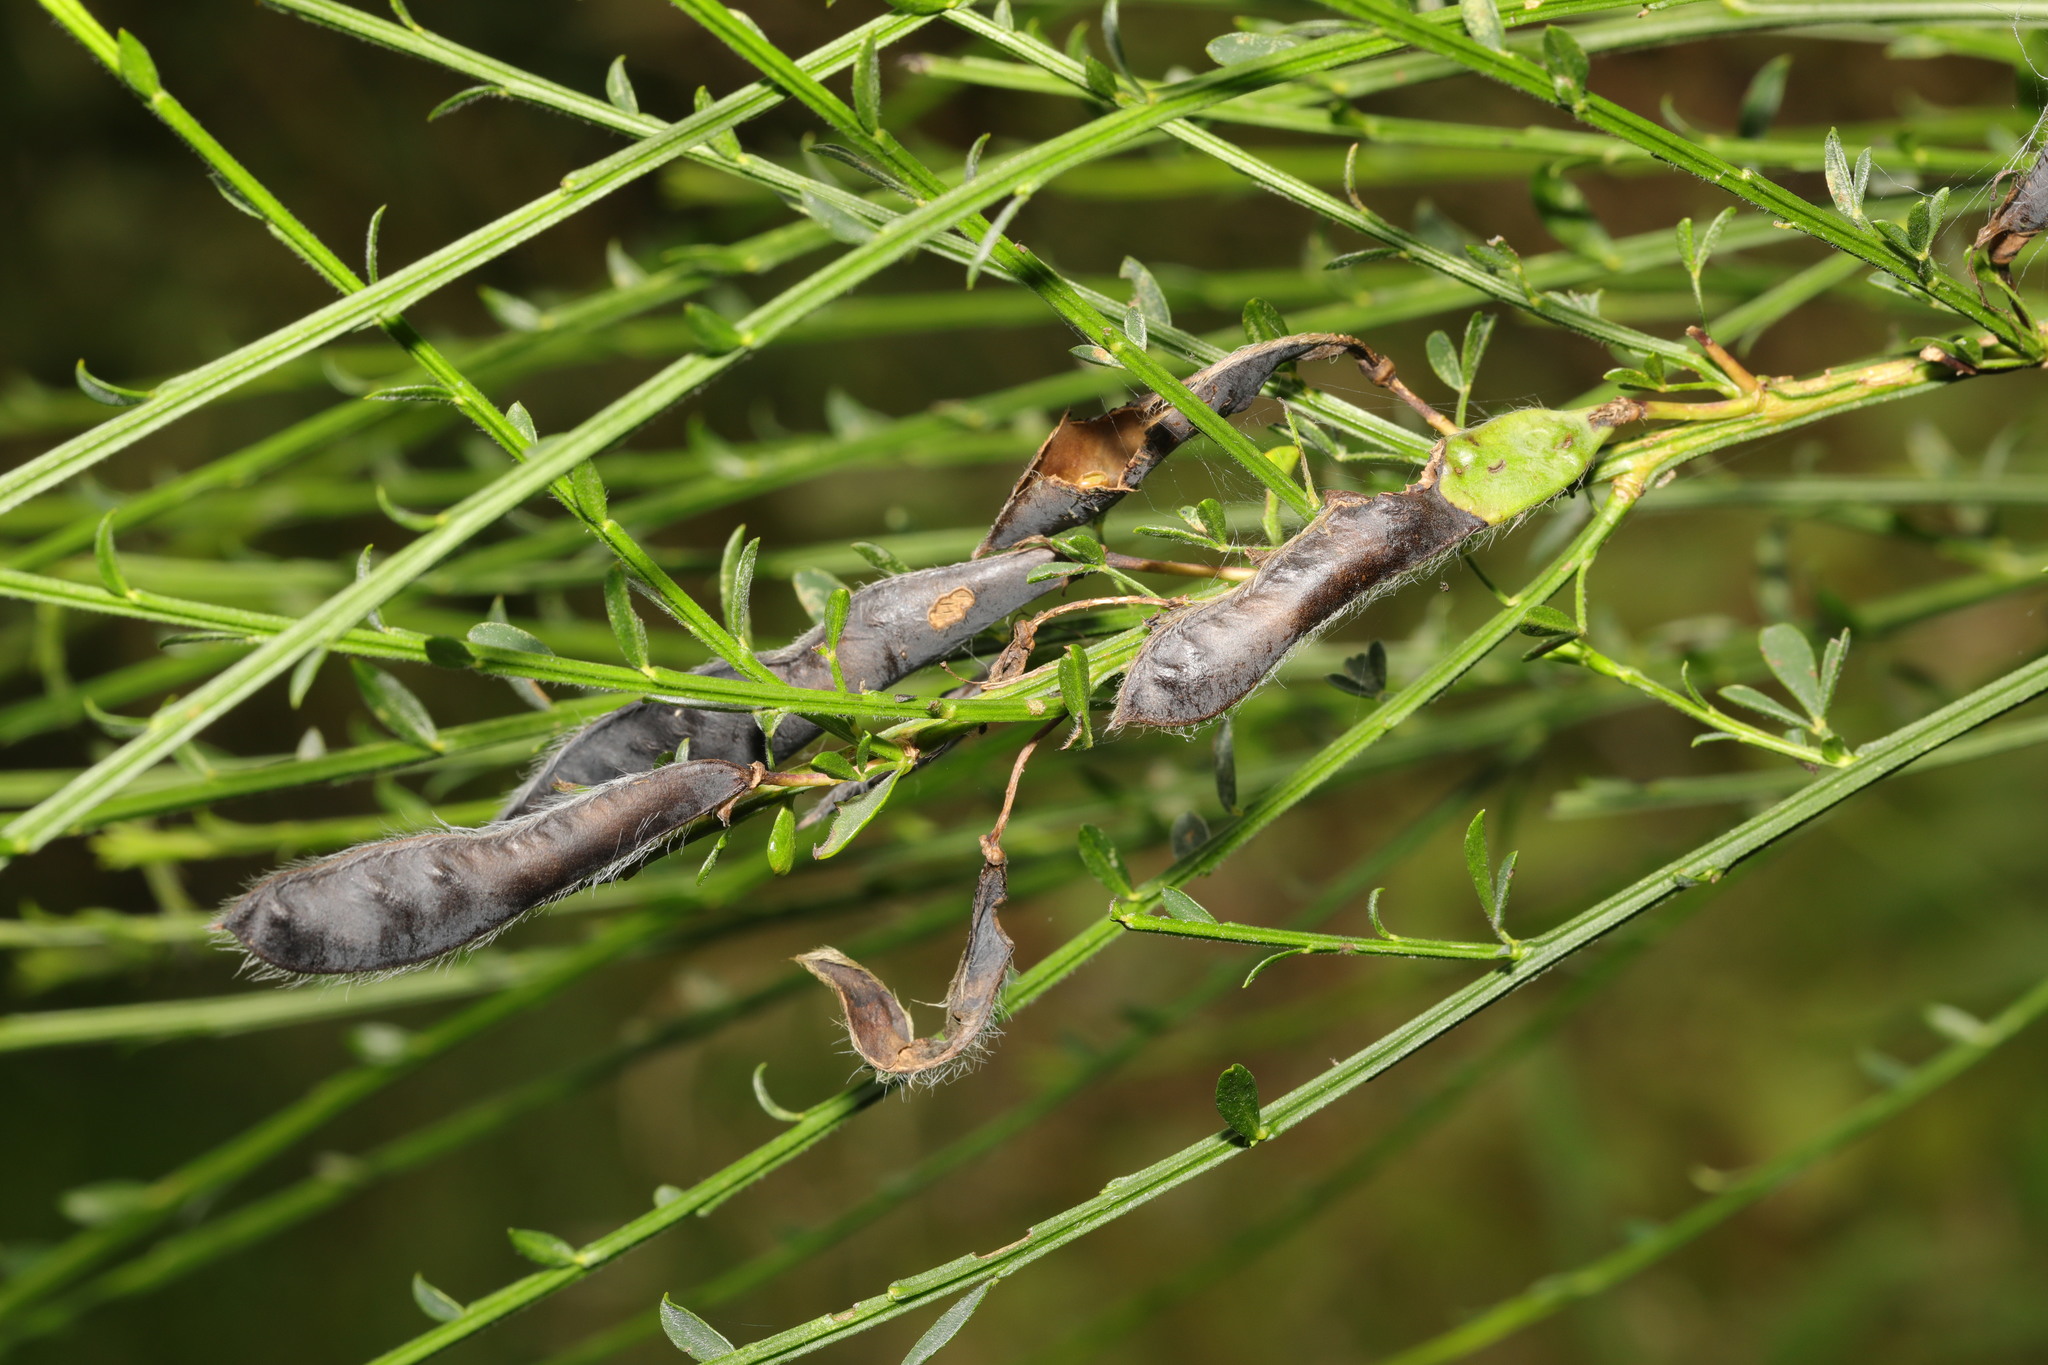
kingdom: Plantae
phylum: Tracheophyta
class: Magnoliopsida
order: Fabales
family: Fabaceae
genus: Cytisus
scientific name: Cytisus scoparius
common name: Scotch broom
